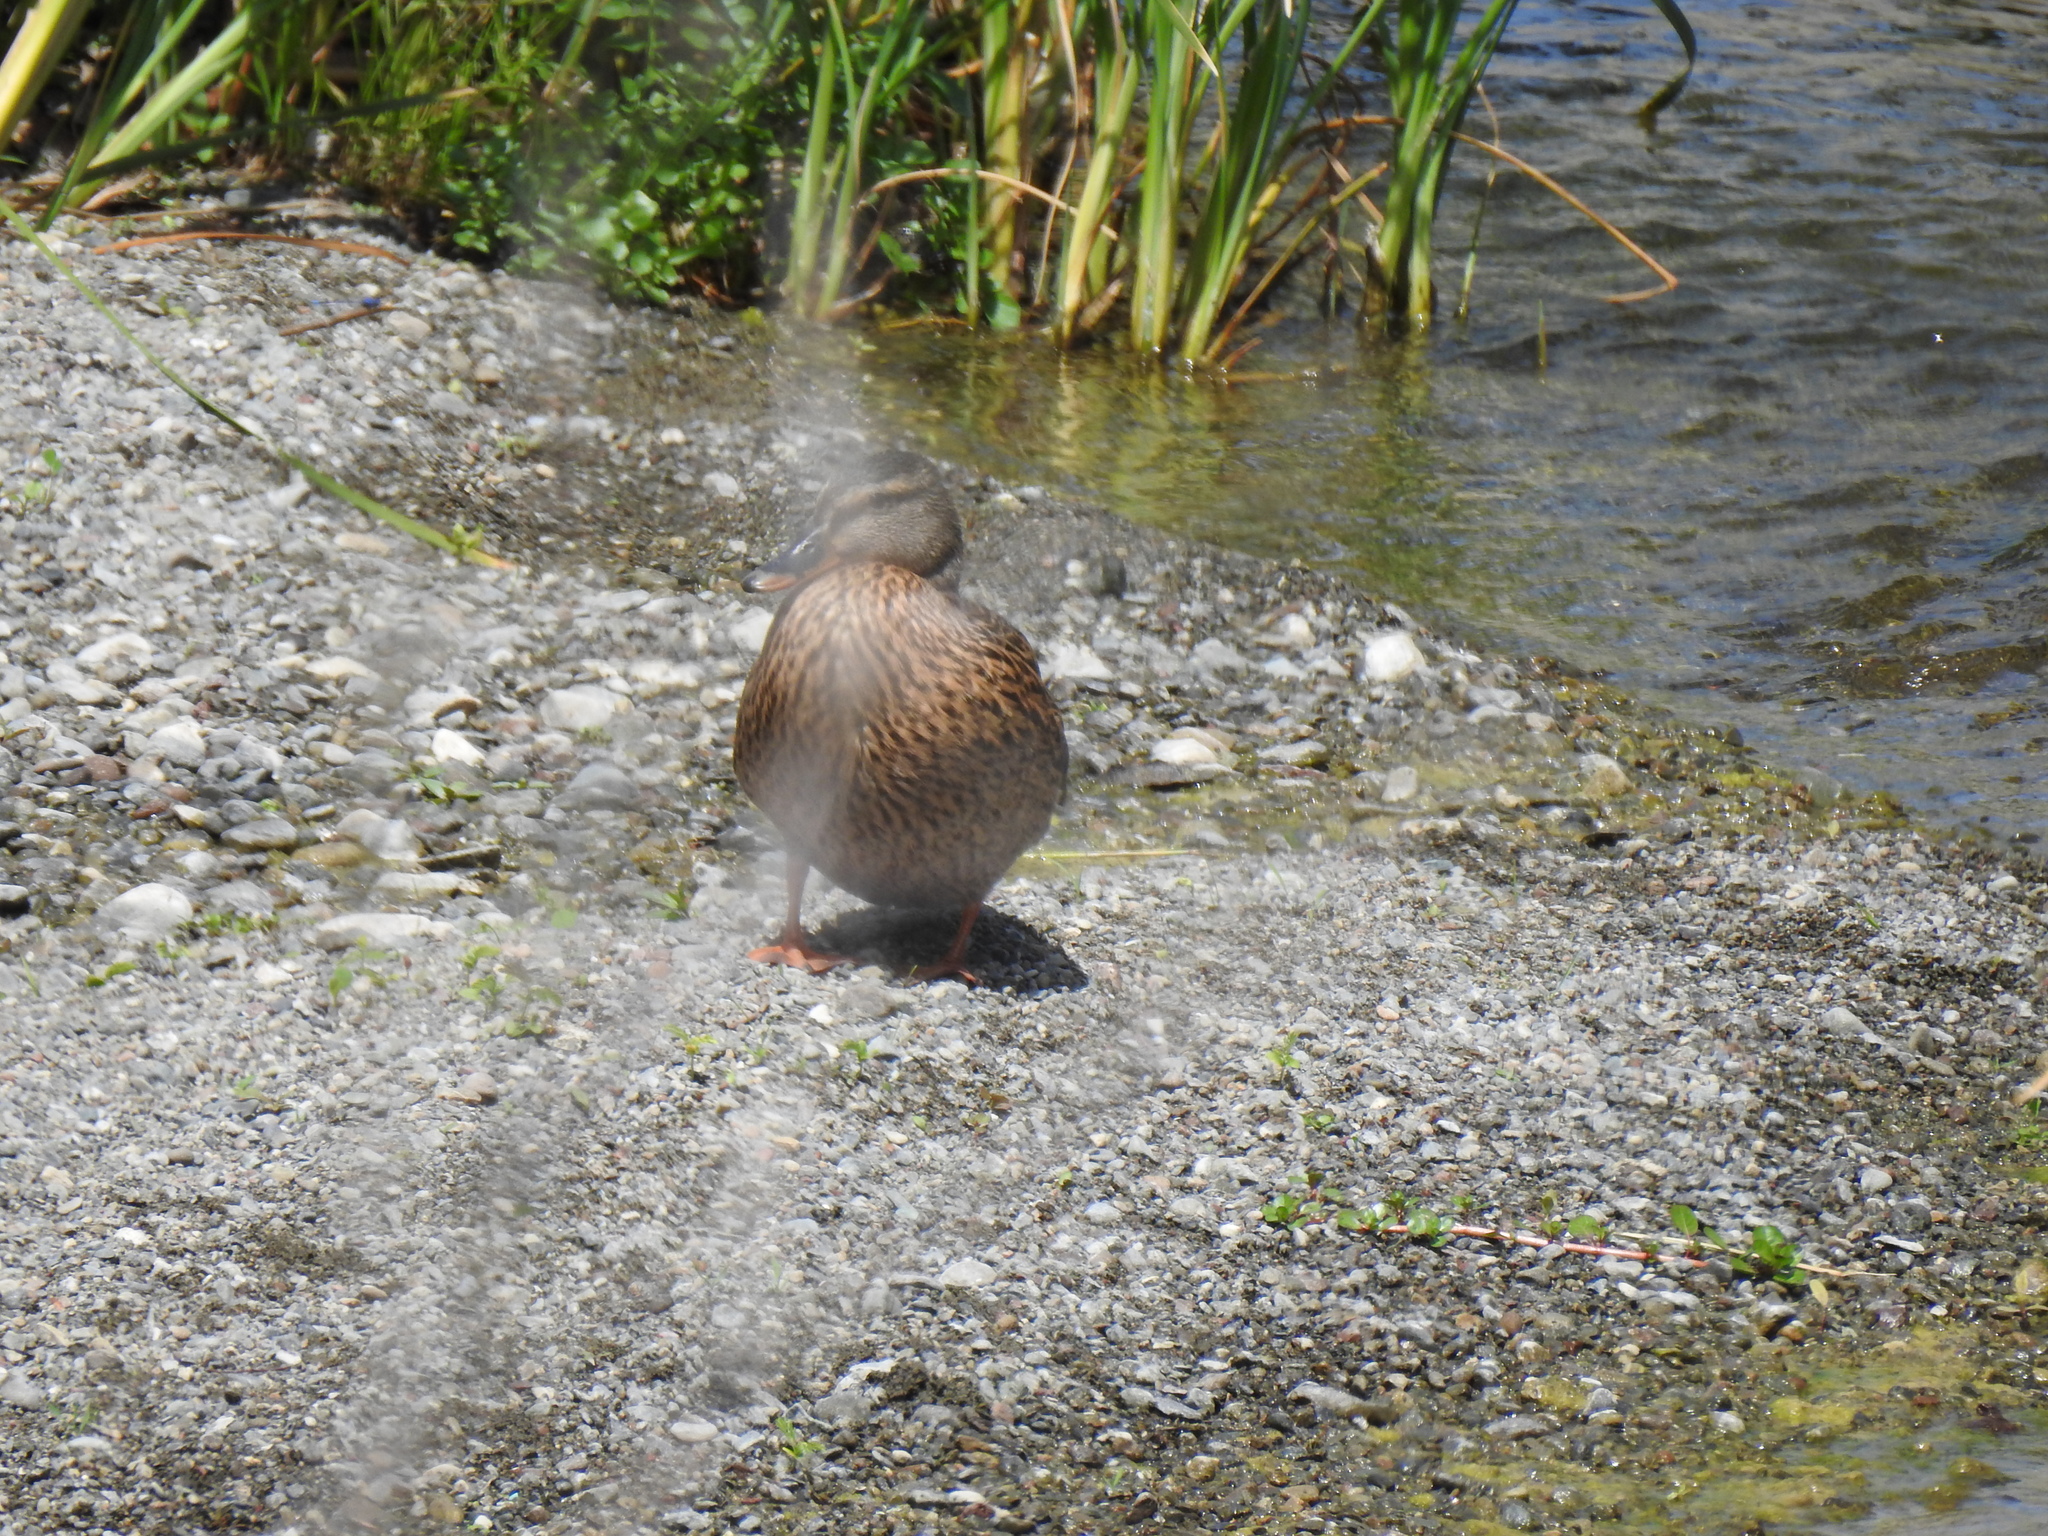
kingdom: Animalia
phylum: Chordata
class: Aves
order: Anseriformes
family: Anatidae
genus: Anas
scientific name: Anas platyrhynchos
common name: Mallard
